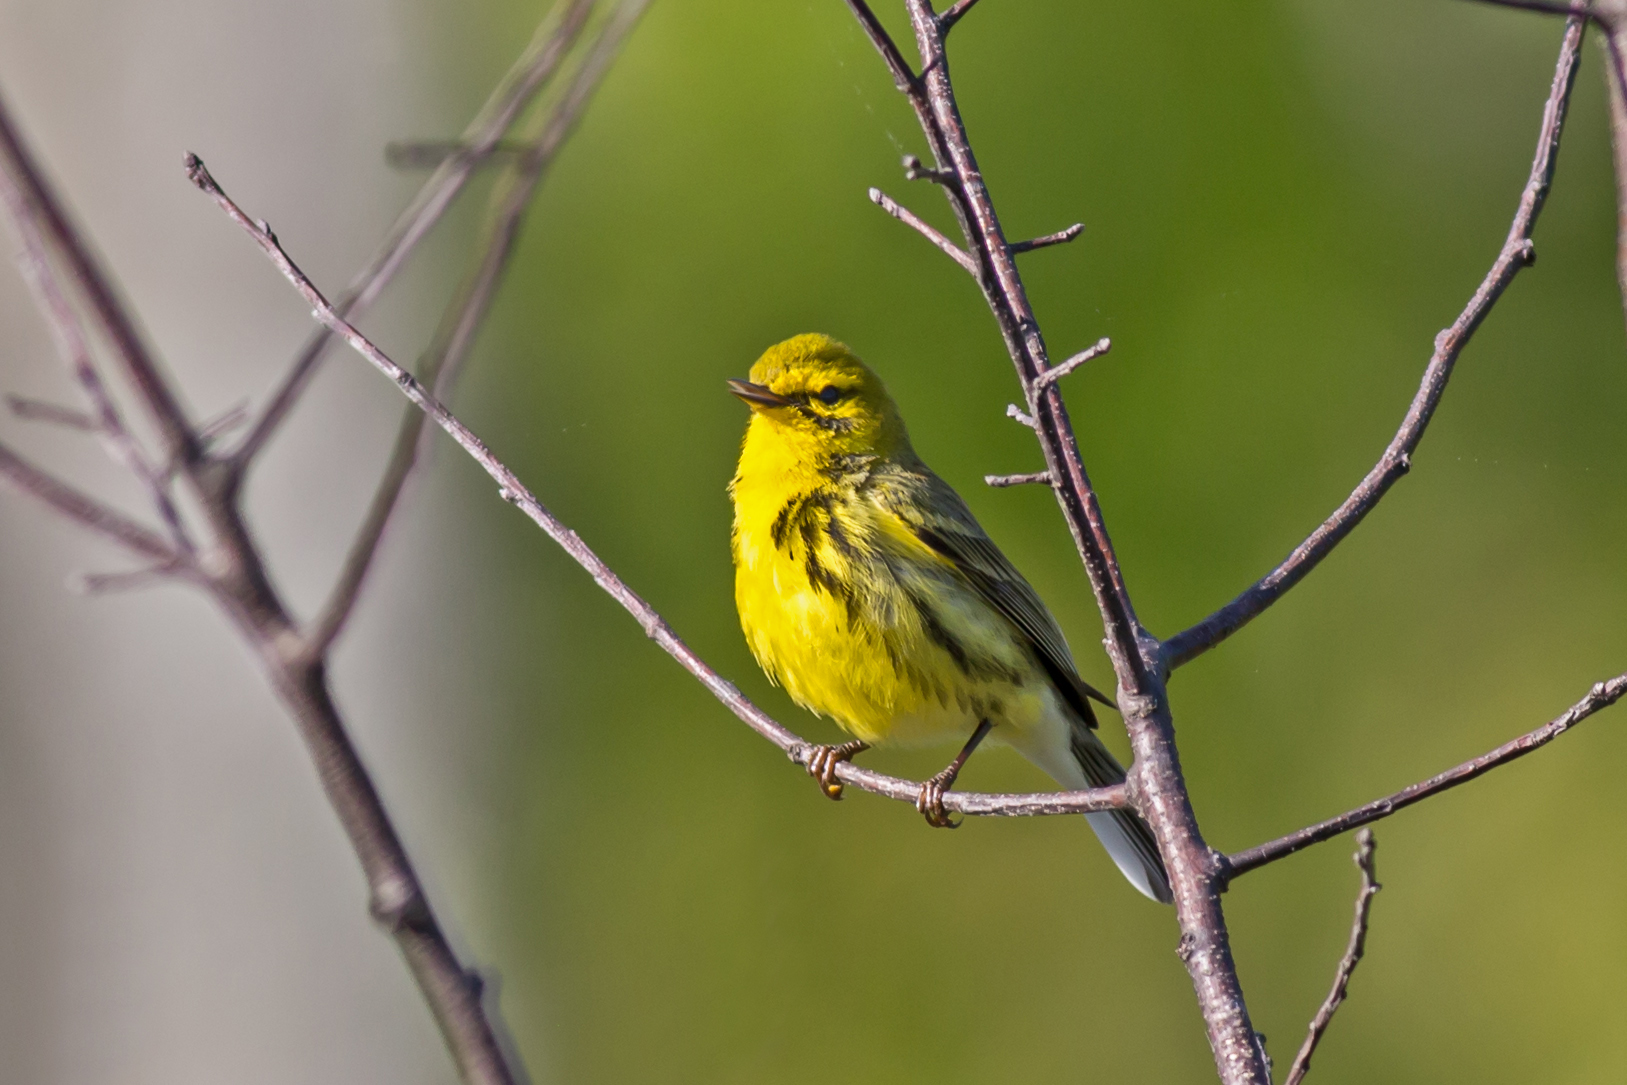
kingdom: Animalia
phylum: Chordata
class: Aves
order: Passeriformes
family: Parulidae
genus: Setophaga
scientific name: Setophaga discolor
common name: Prairie warbler
